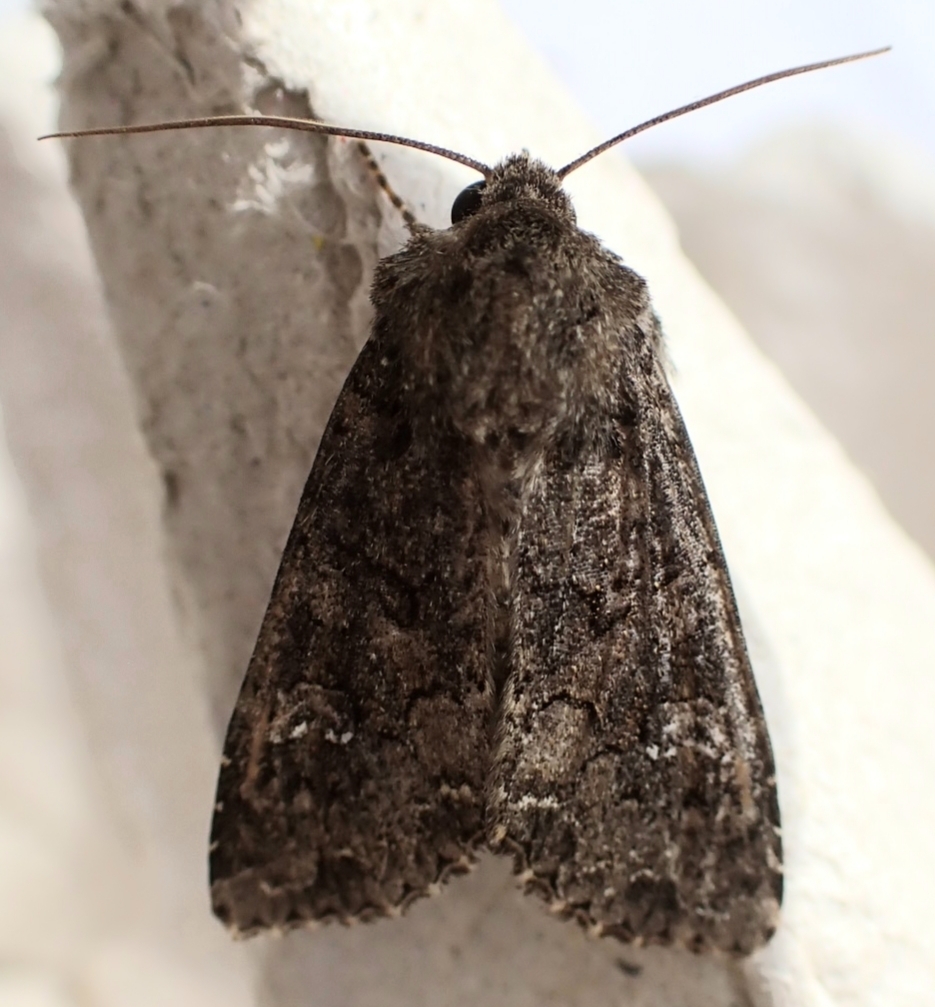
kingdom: Animalia
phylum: Arthropoda
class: Insecta
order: Lepidoptera
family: Noctuidae
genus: Mamestra
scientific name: Mamestra brassicae
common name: Cabbage moth
